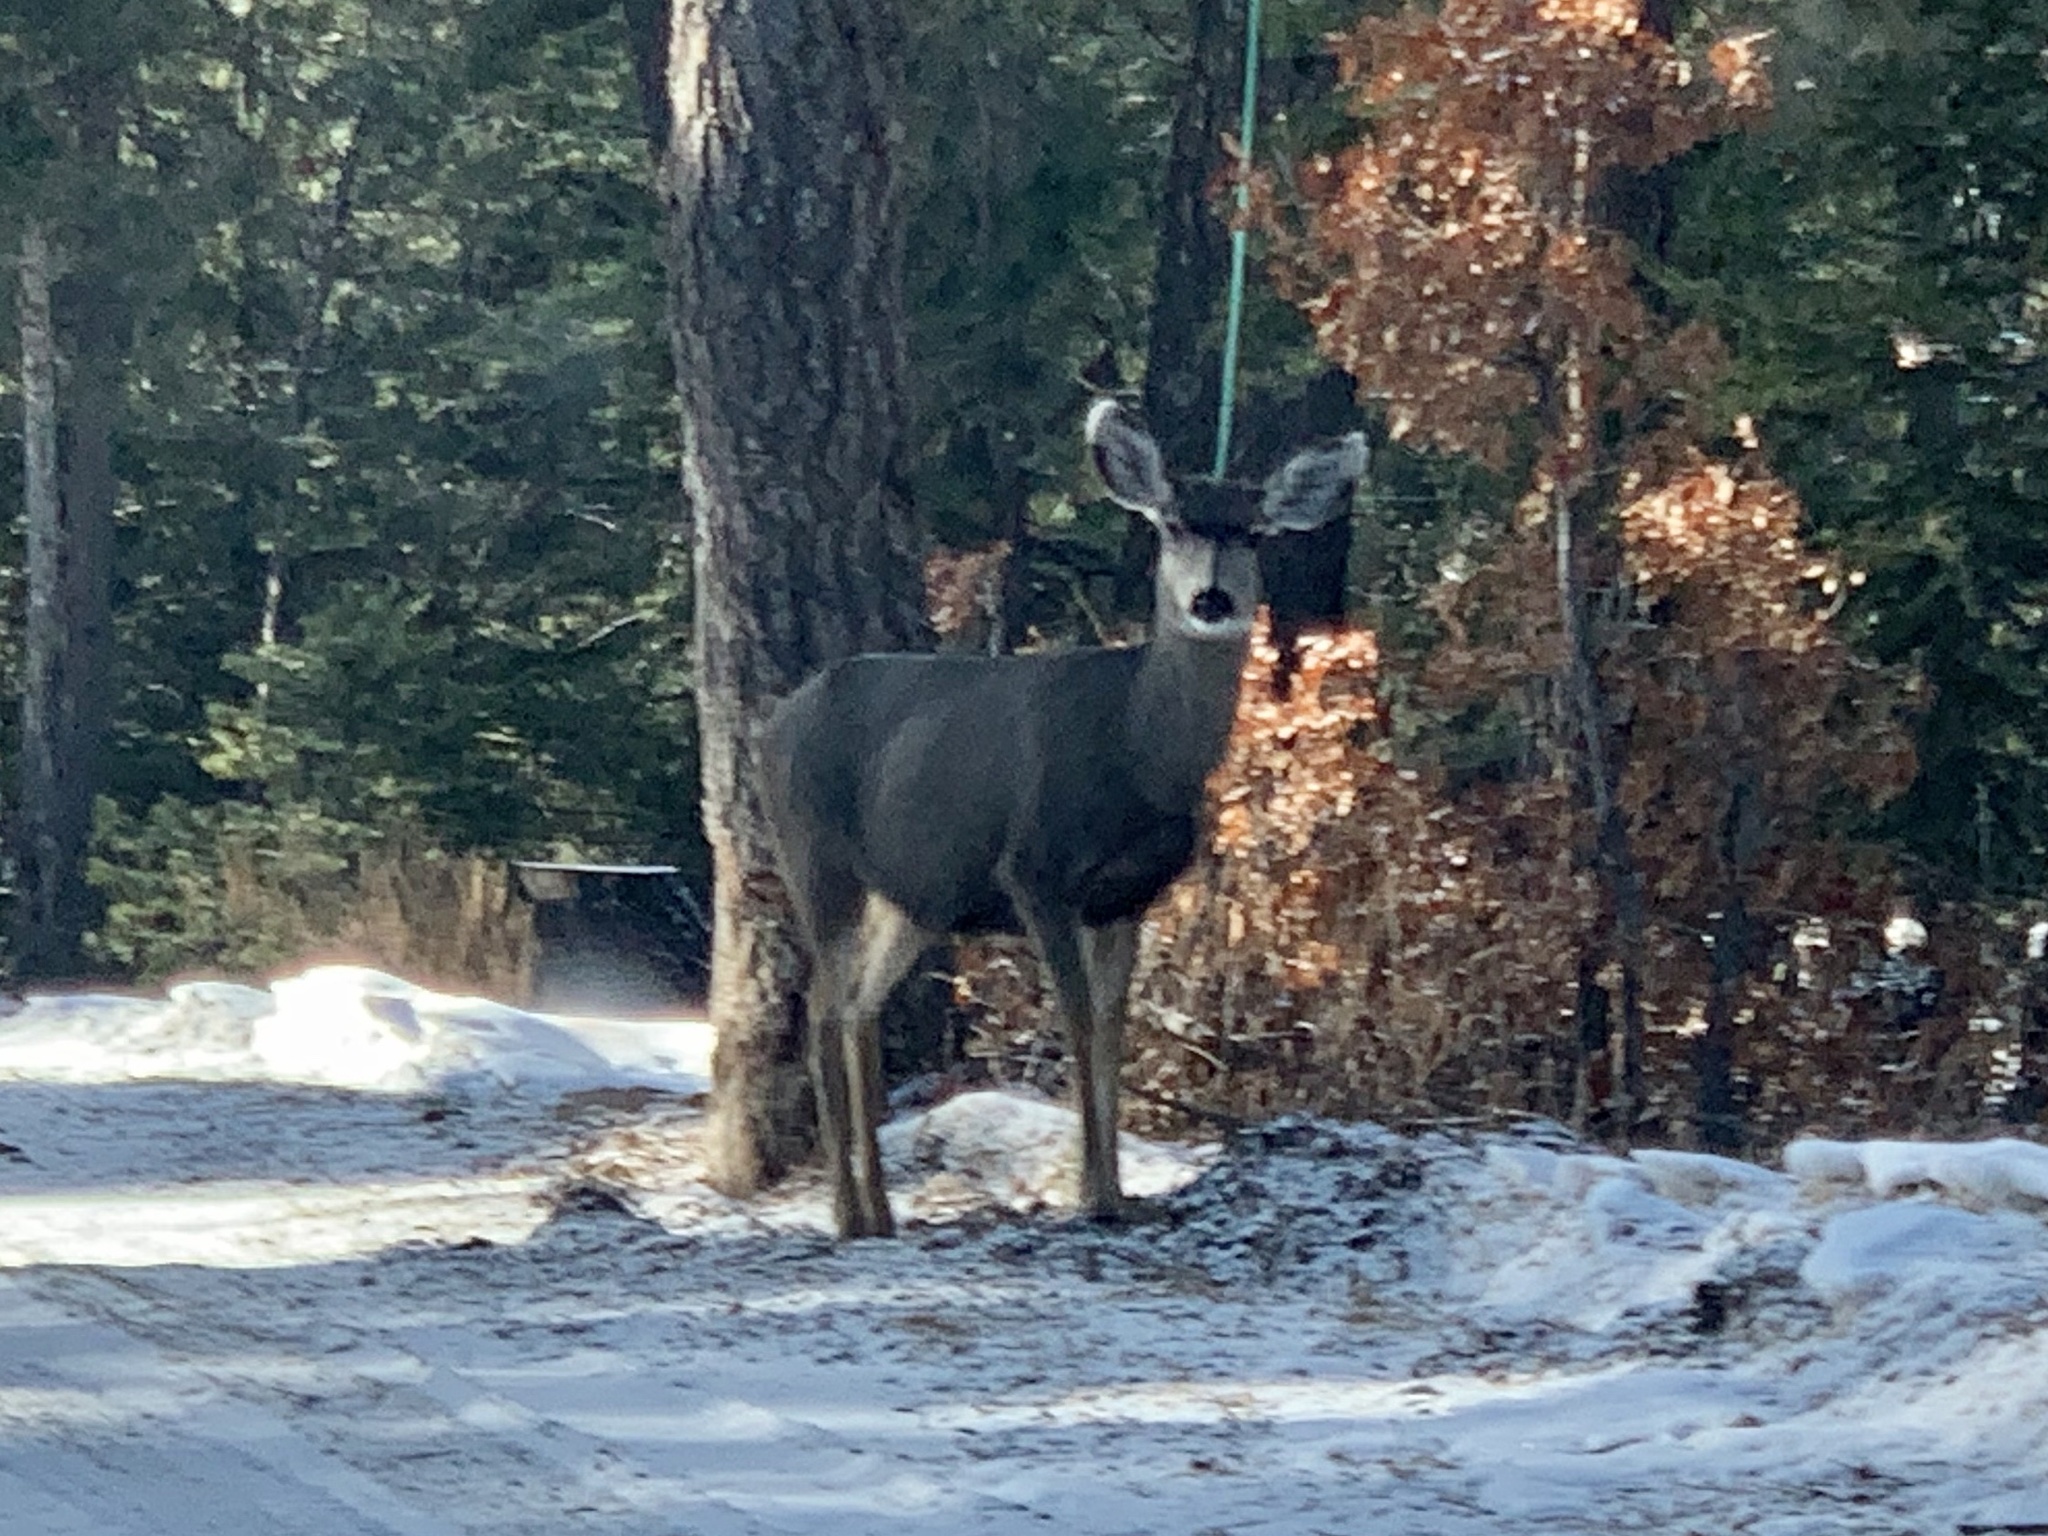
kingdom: Animalia
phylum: Chordata
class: Mammalia
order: Artiodactyla
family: Cervidae
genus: Odocoileus
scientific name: Odocoileus hemionus
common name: Mule deer
